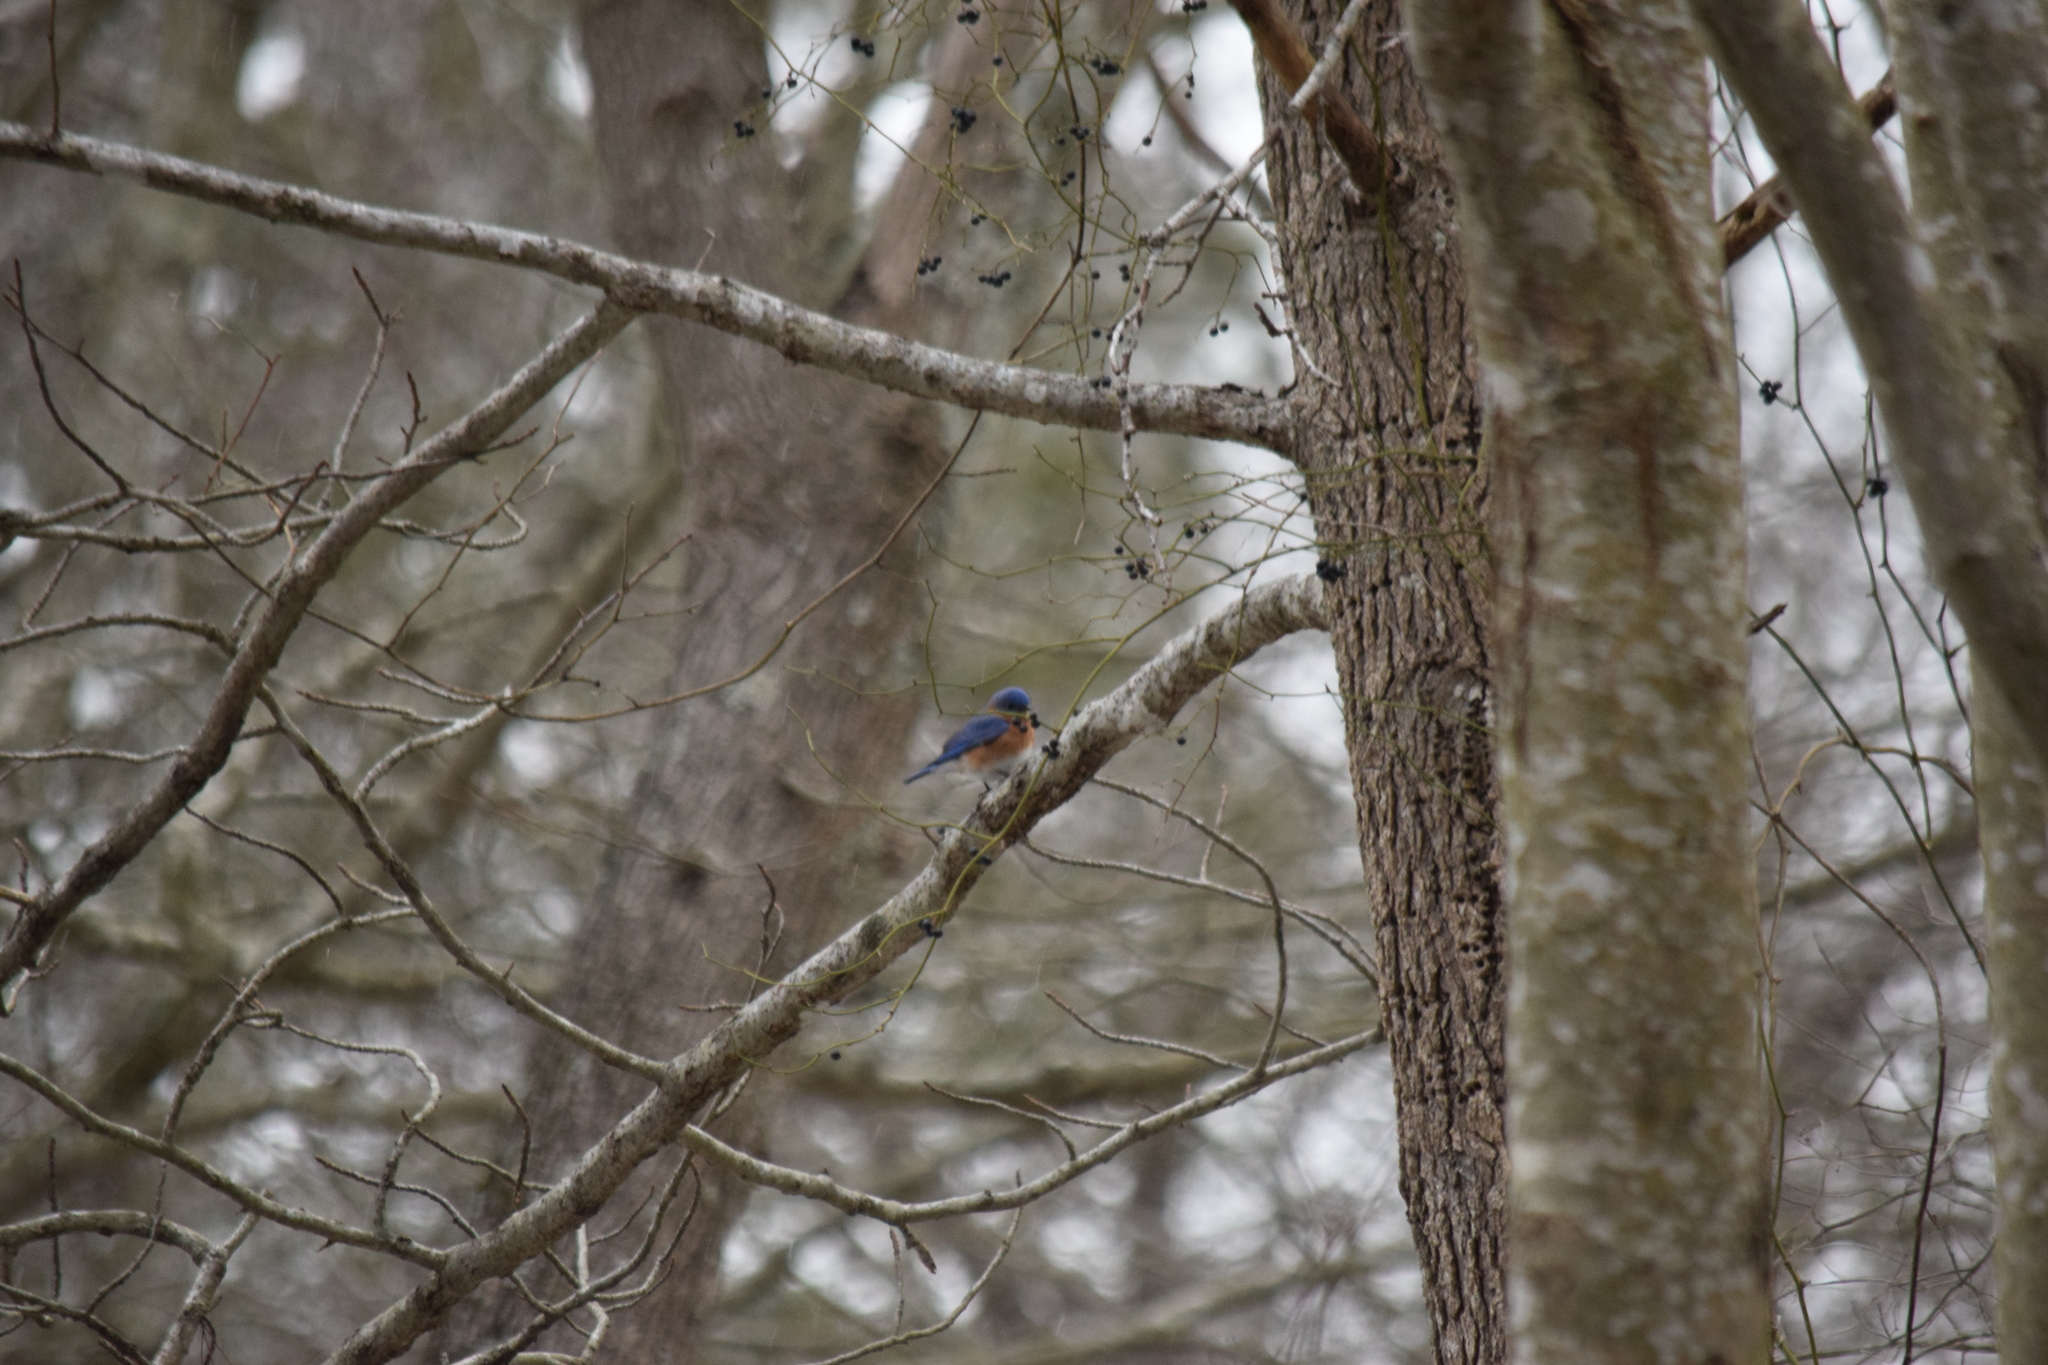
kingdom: Animalia
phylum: Chordata
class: Aves
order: Passeriformes
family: Turdidae
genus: Sialia
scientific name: Sialia sialis
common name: Eastern bluebird
